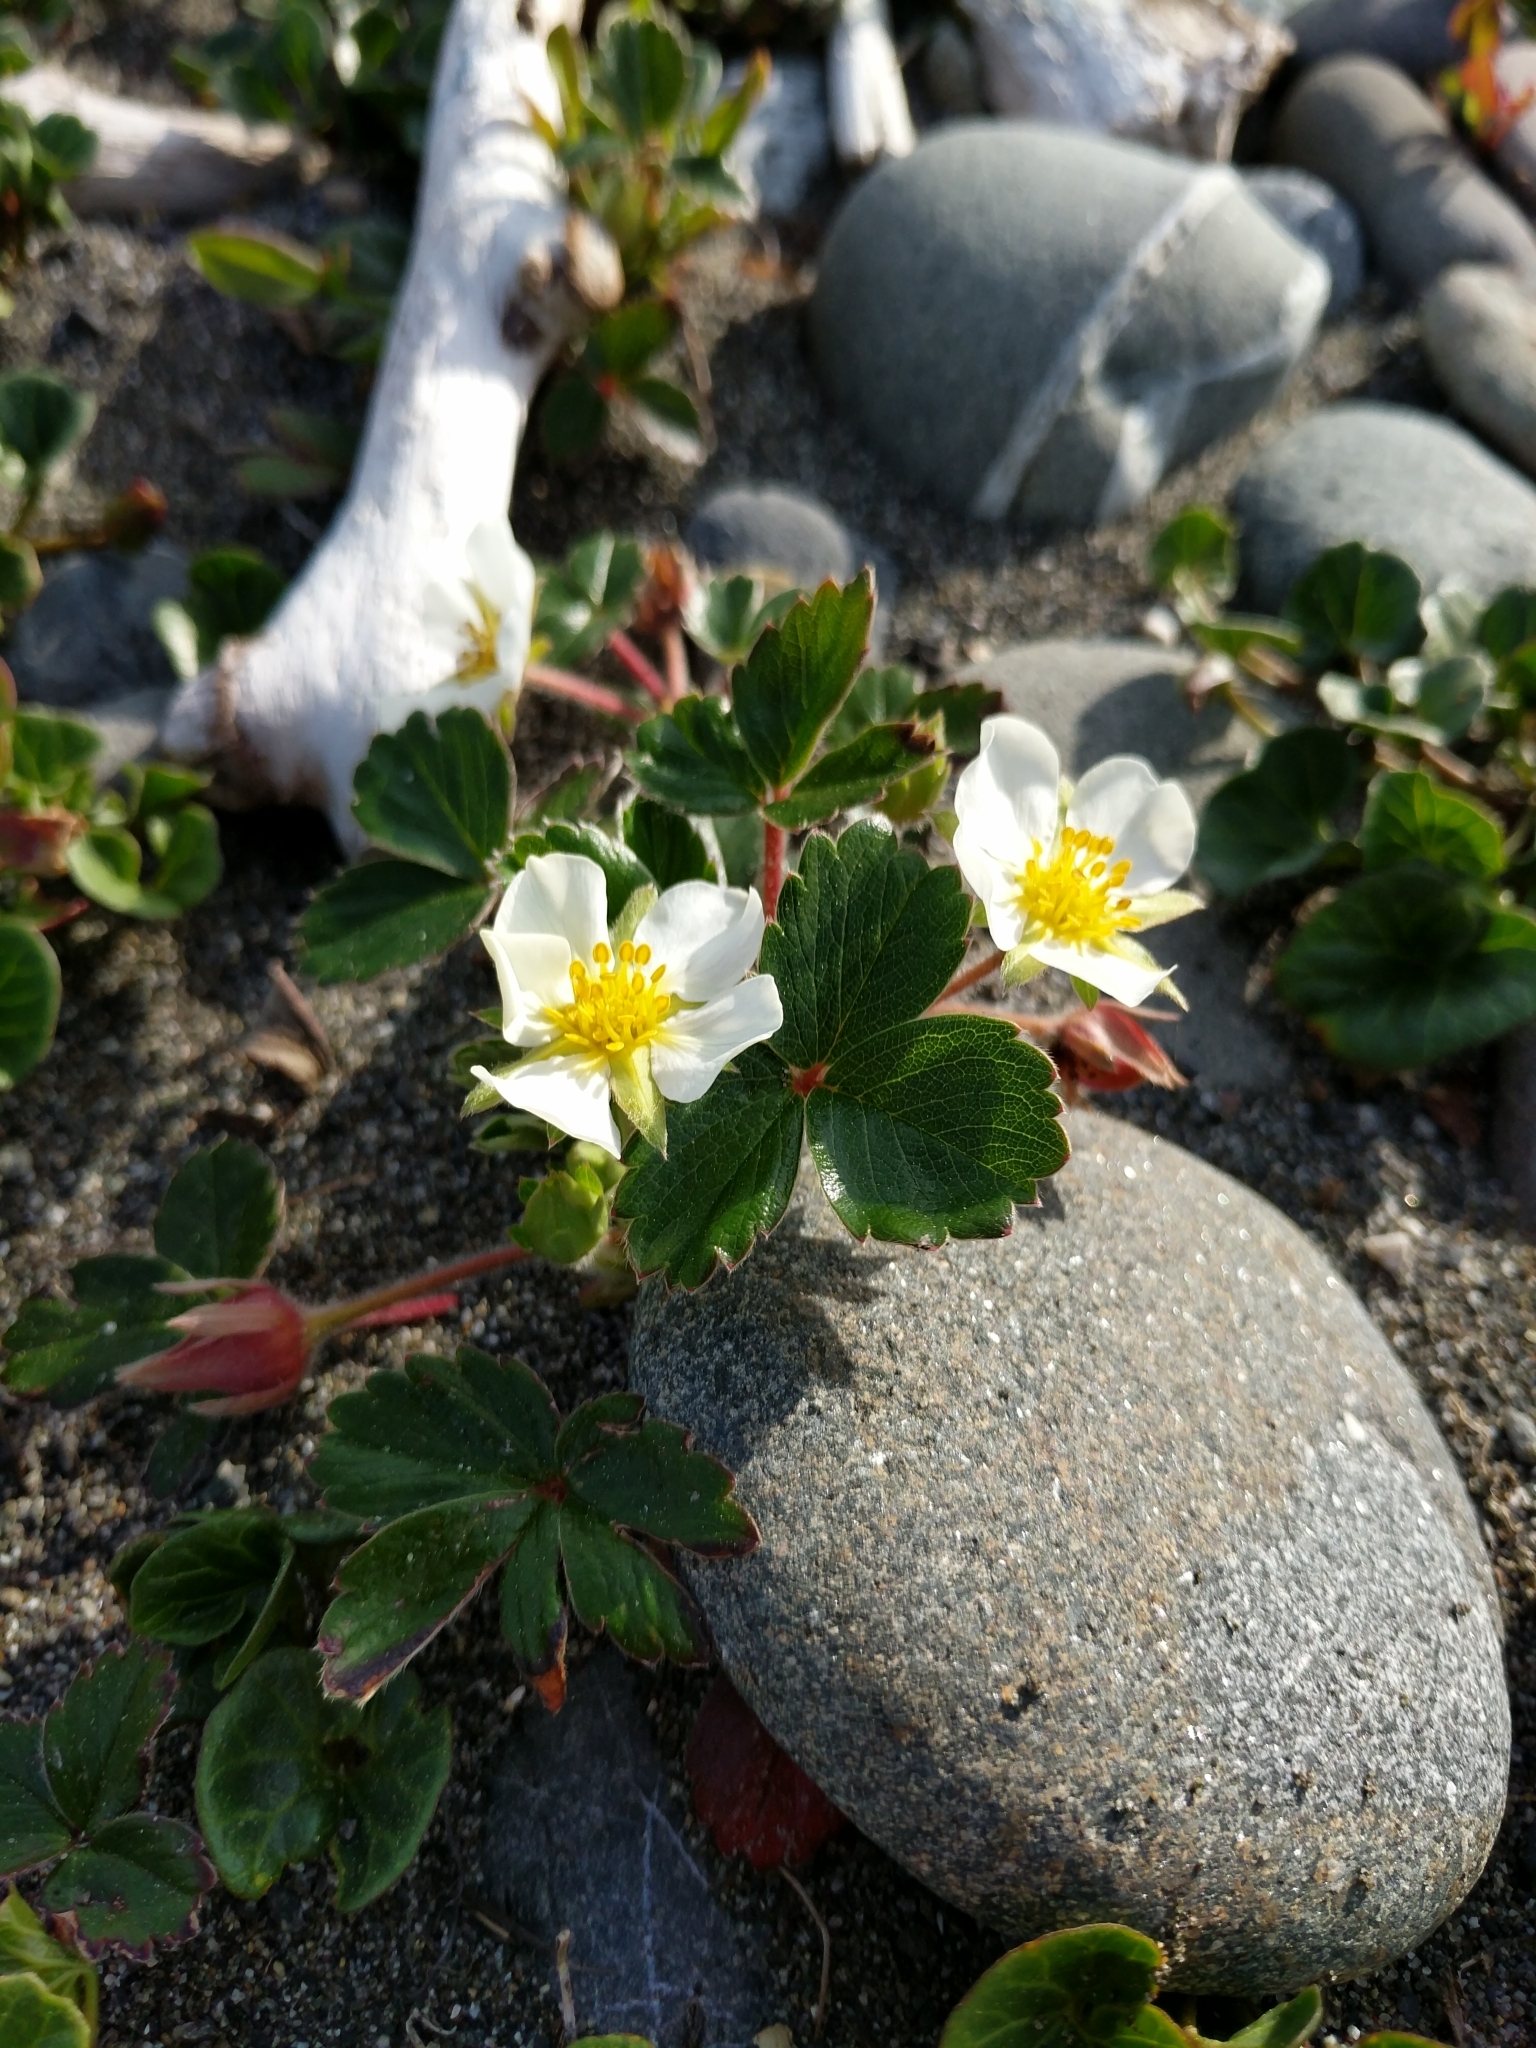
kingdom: Plantae
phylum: Tracheophyta
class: Magnoliopsida
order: Rosales
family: Rosaceae
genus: Fragaria
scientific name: Fragaria chiloensis
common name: Beach strawberry
